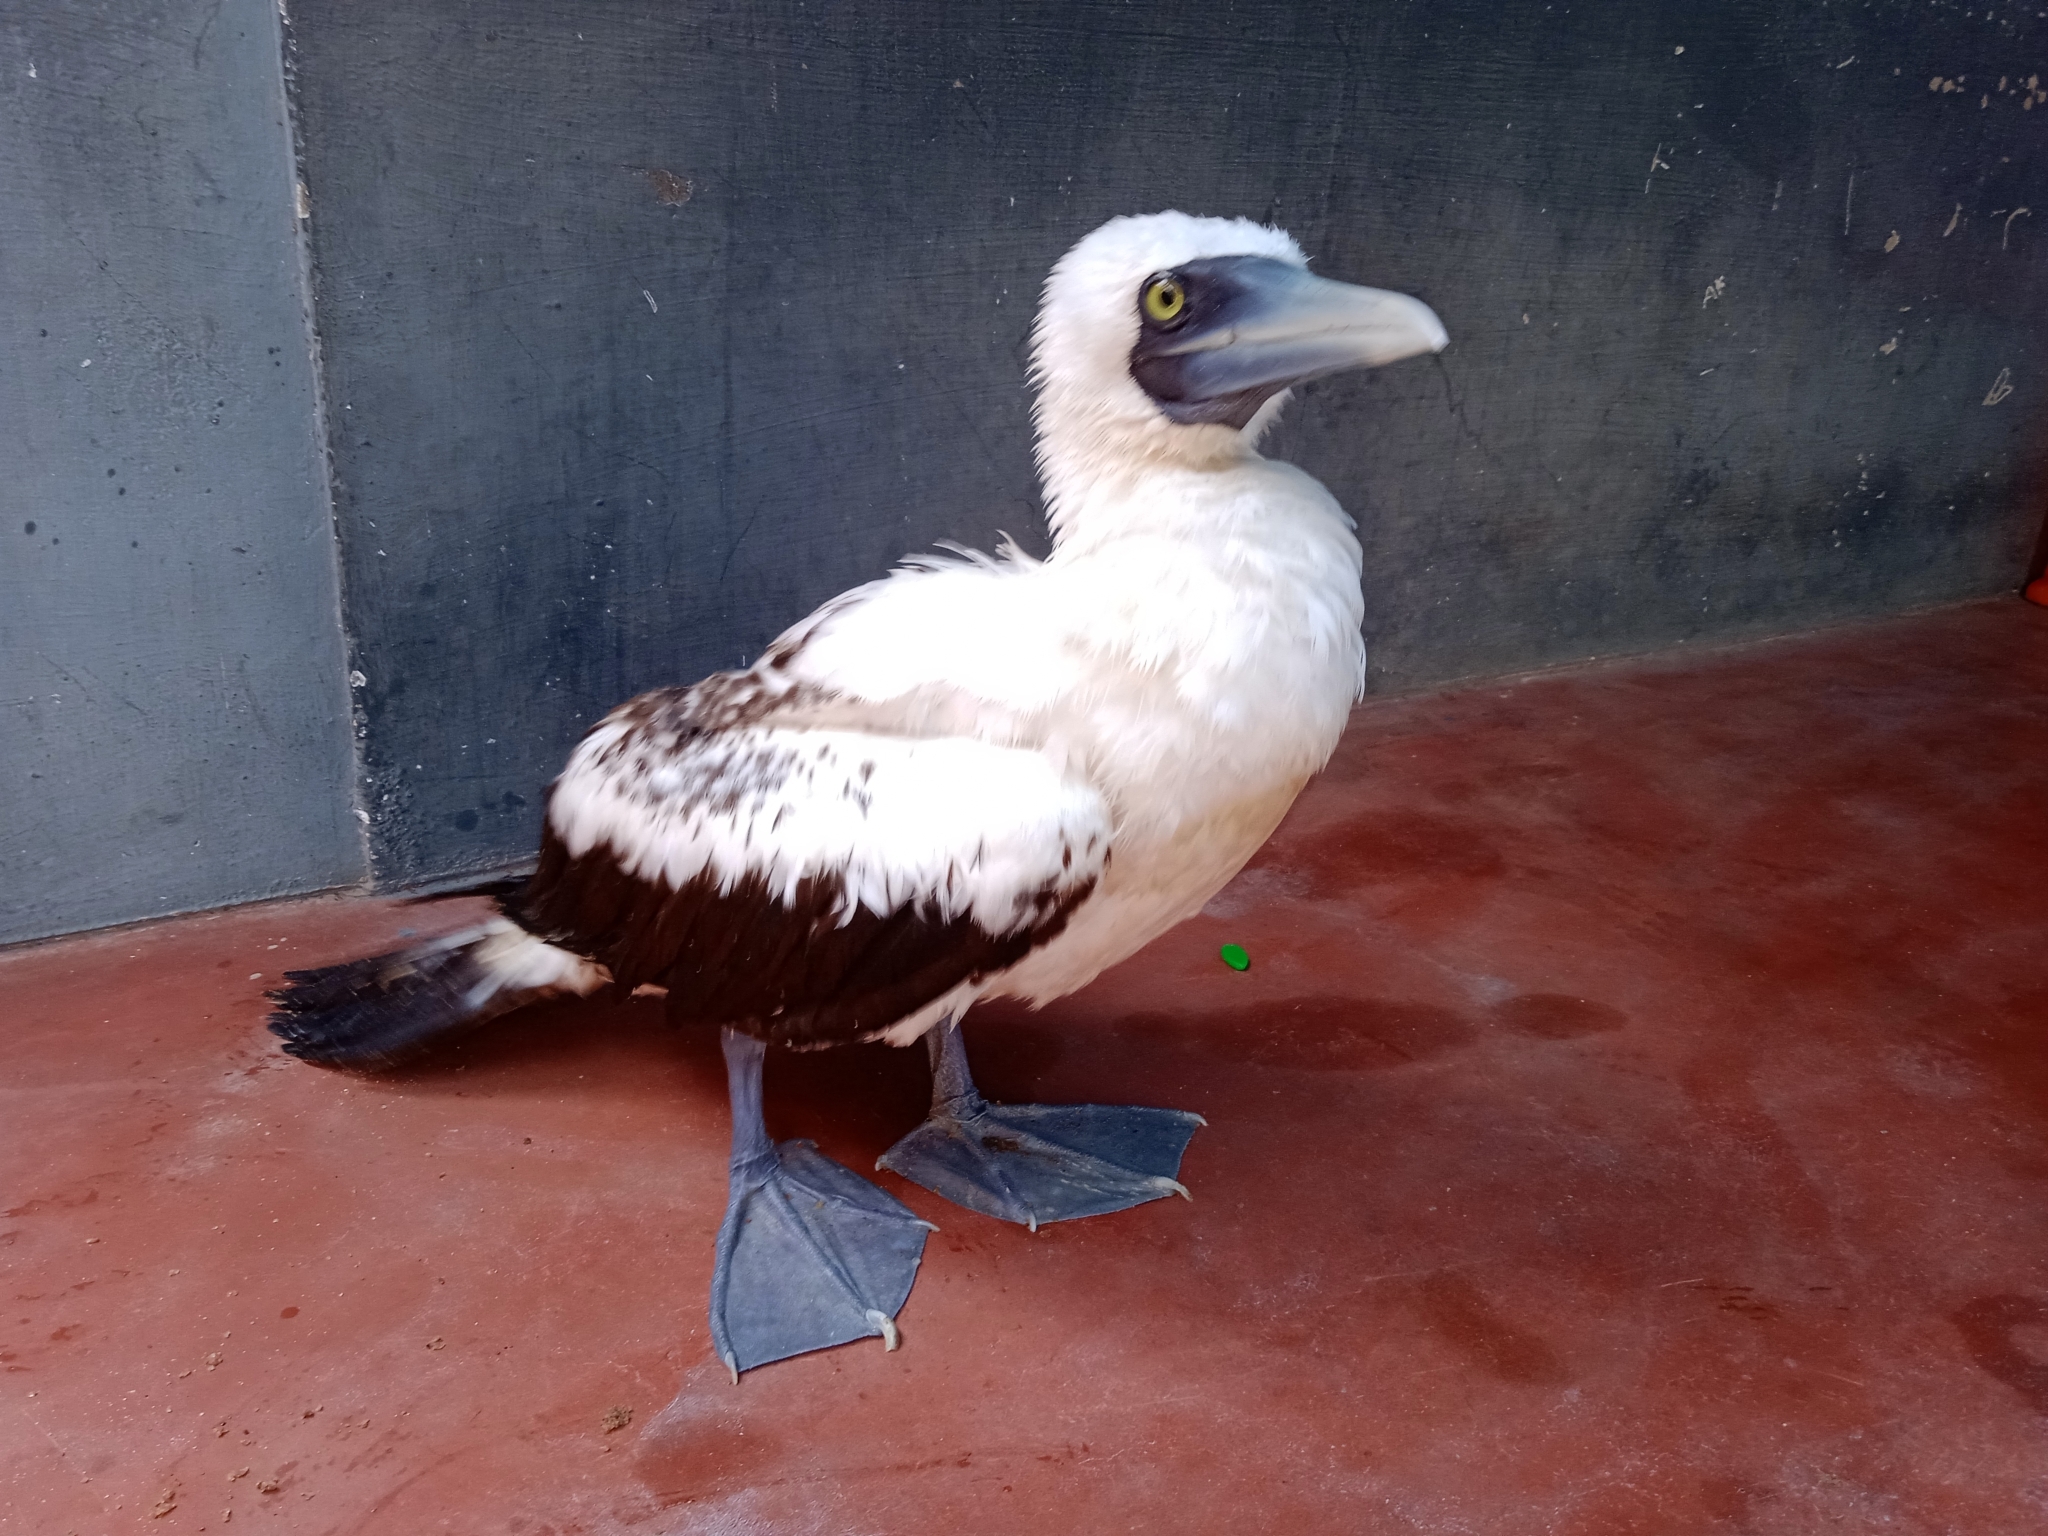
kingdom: Animalia
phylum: Chordata
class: Aves
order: Suliformes
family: Sulidae
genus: Sula
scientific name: Sula dactylatra
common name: Masked booby
